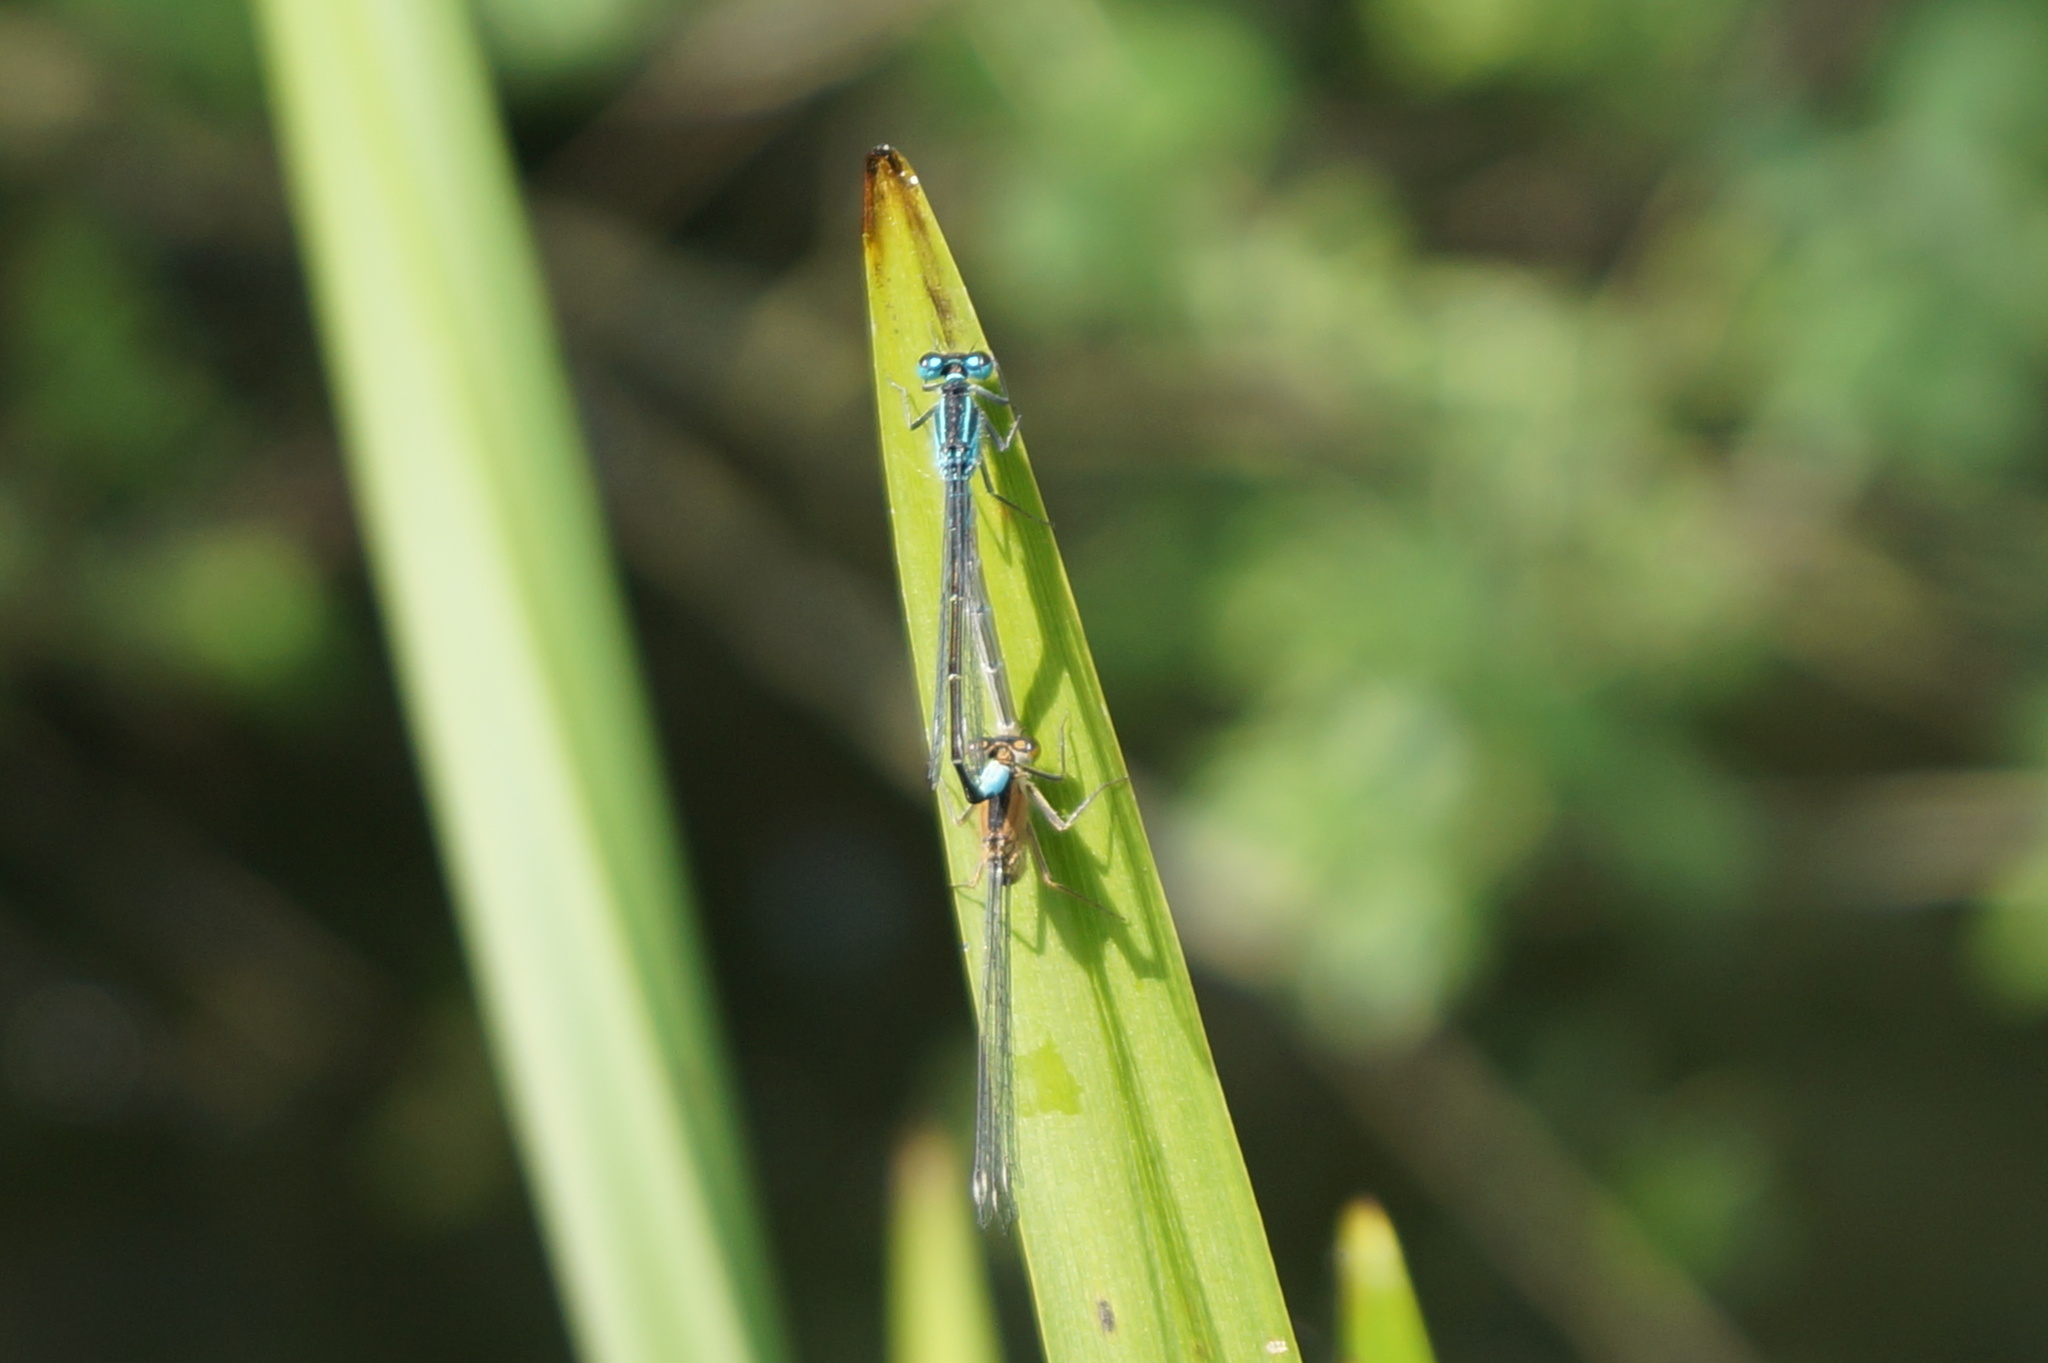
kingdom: Animalia
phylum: Arthropoda
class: Insecta
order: Odonata
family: Coenagrionidae
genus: Ischnura
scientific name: Ischnura elegans
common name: Blue-tailed damselfly
